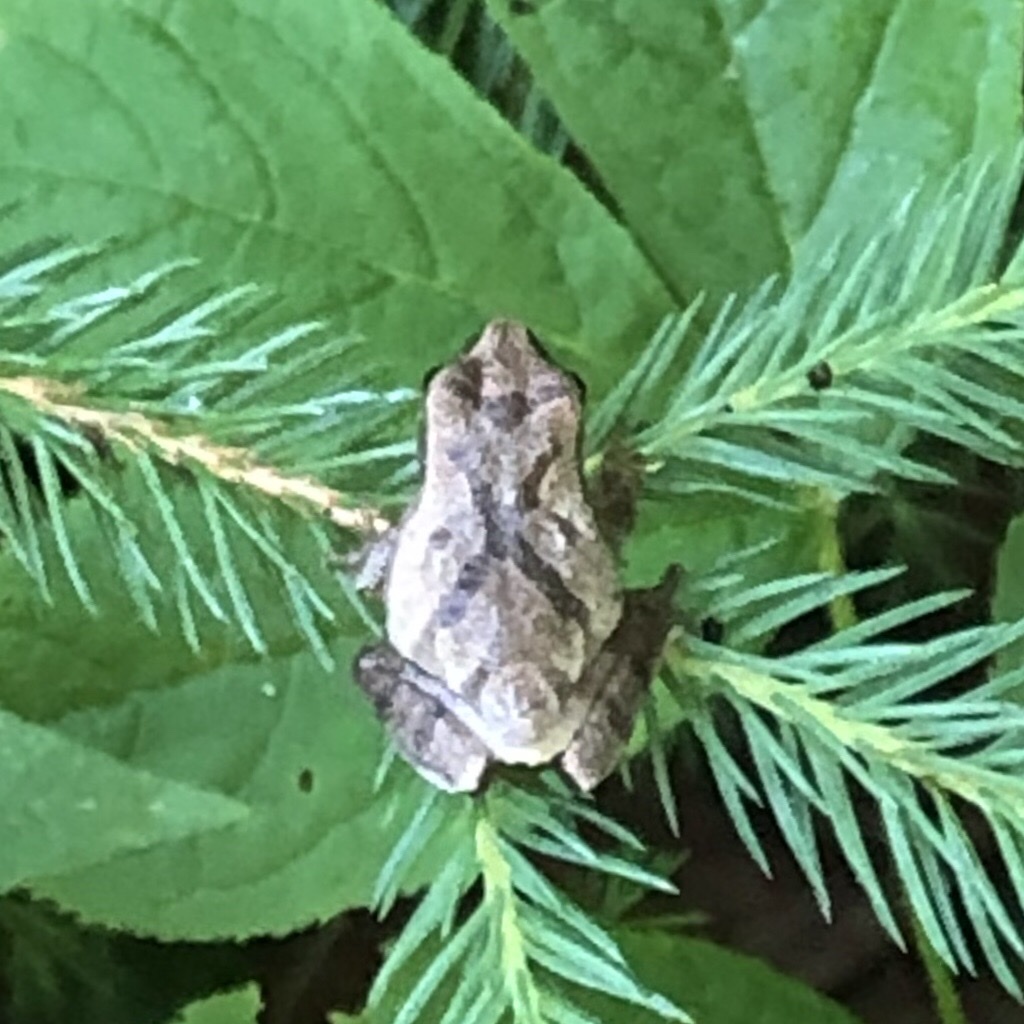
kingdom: Animalia
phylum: Chordata
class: Amphibia
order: Anura
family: Hylidae
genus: Pseudacris
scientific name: Pseudacris crucifer
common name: Spring peeper
